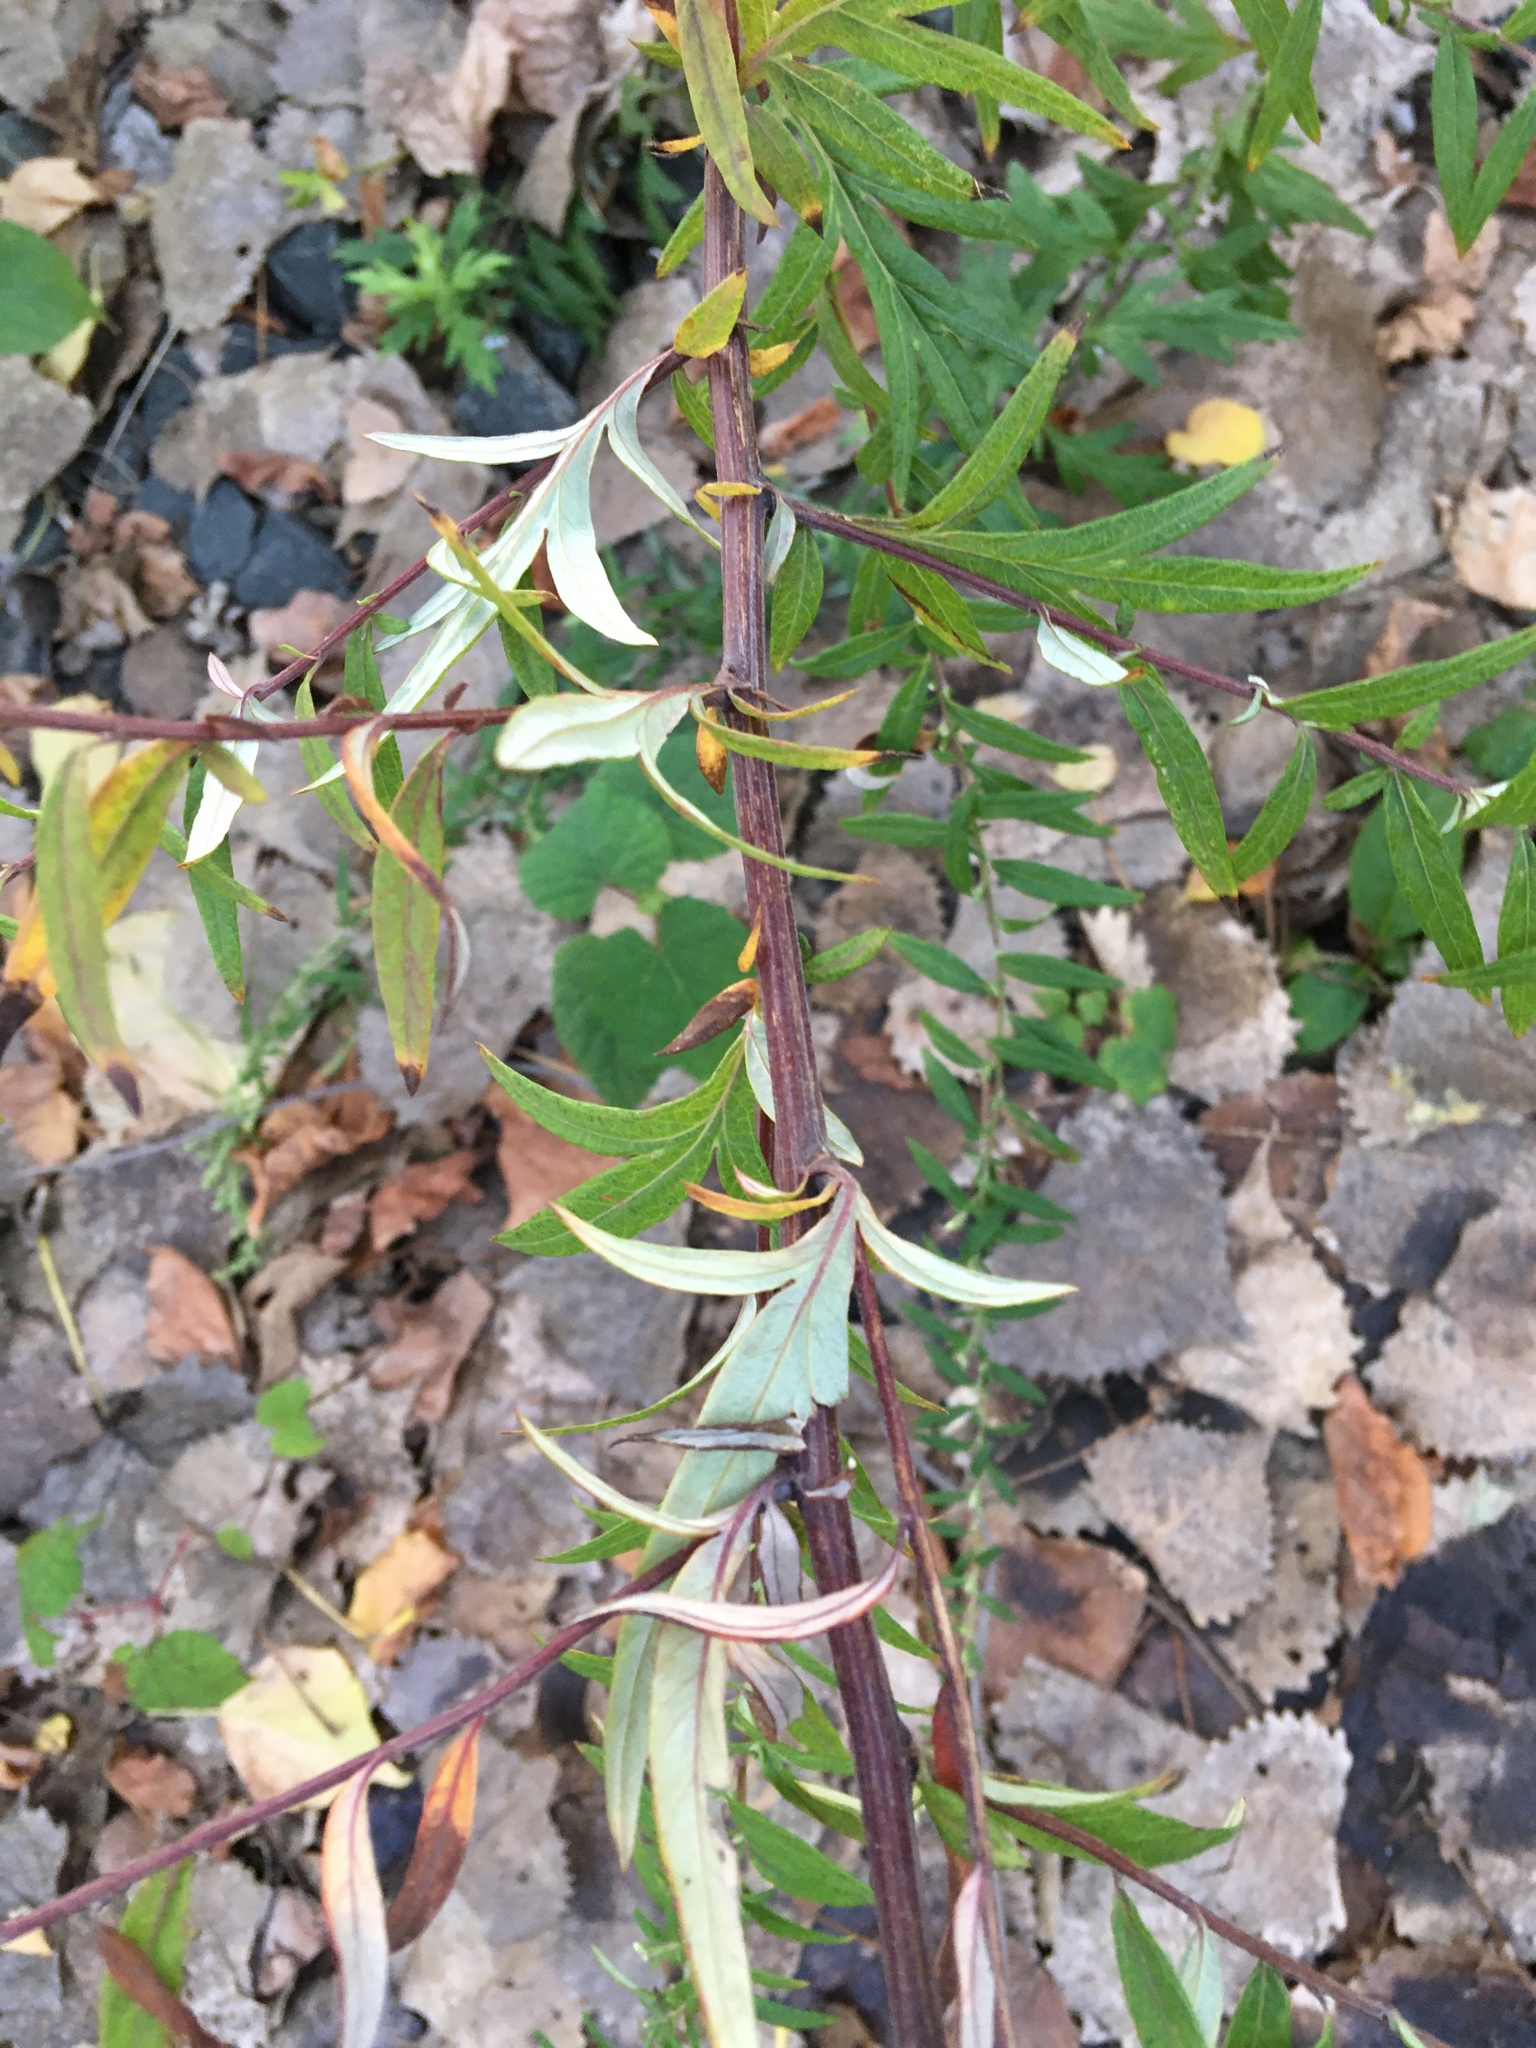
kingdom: Plantae
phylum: Tracheophyta
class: Magnoliopsida
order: Asterales
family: Asteraceae
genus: Artemisia
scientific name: Artemisia vulgaris
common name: Mugwort
